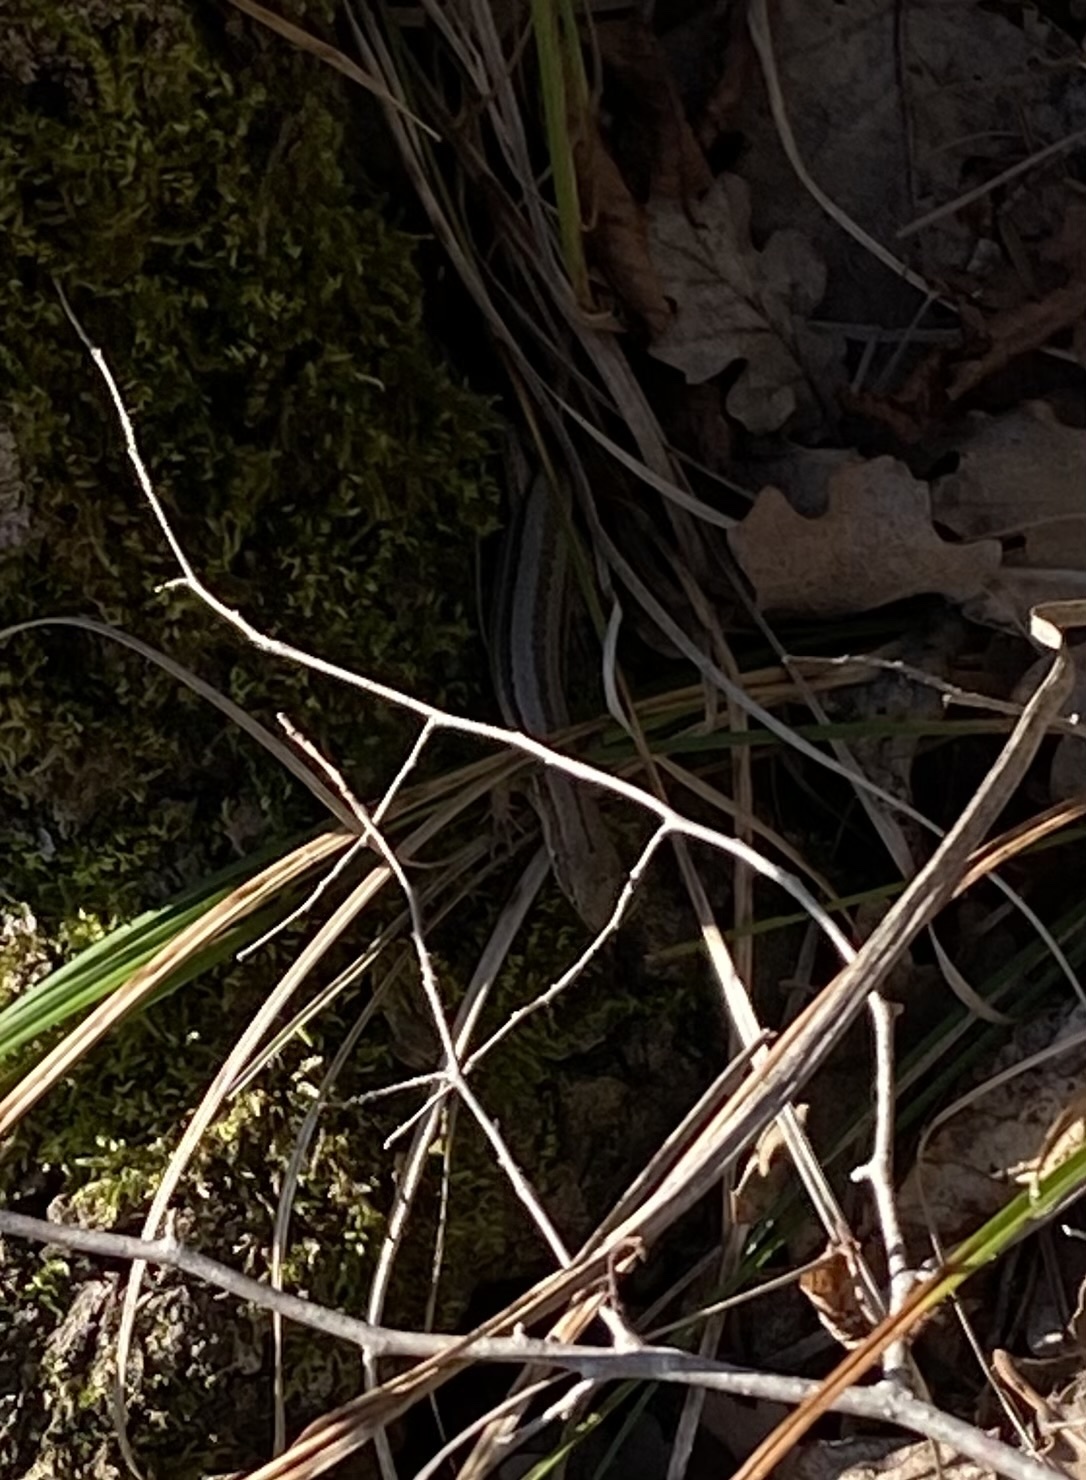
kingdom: Animalia
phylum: Chordata
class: Squamata
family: Lacertidae
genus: Darevskia
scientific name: Darevskia praticola
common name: Meadow lizard
